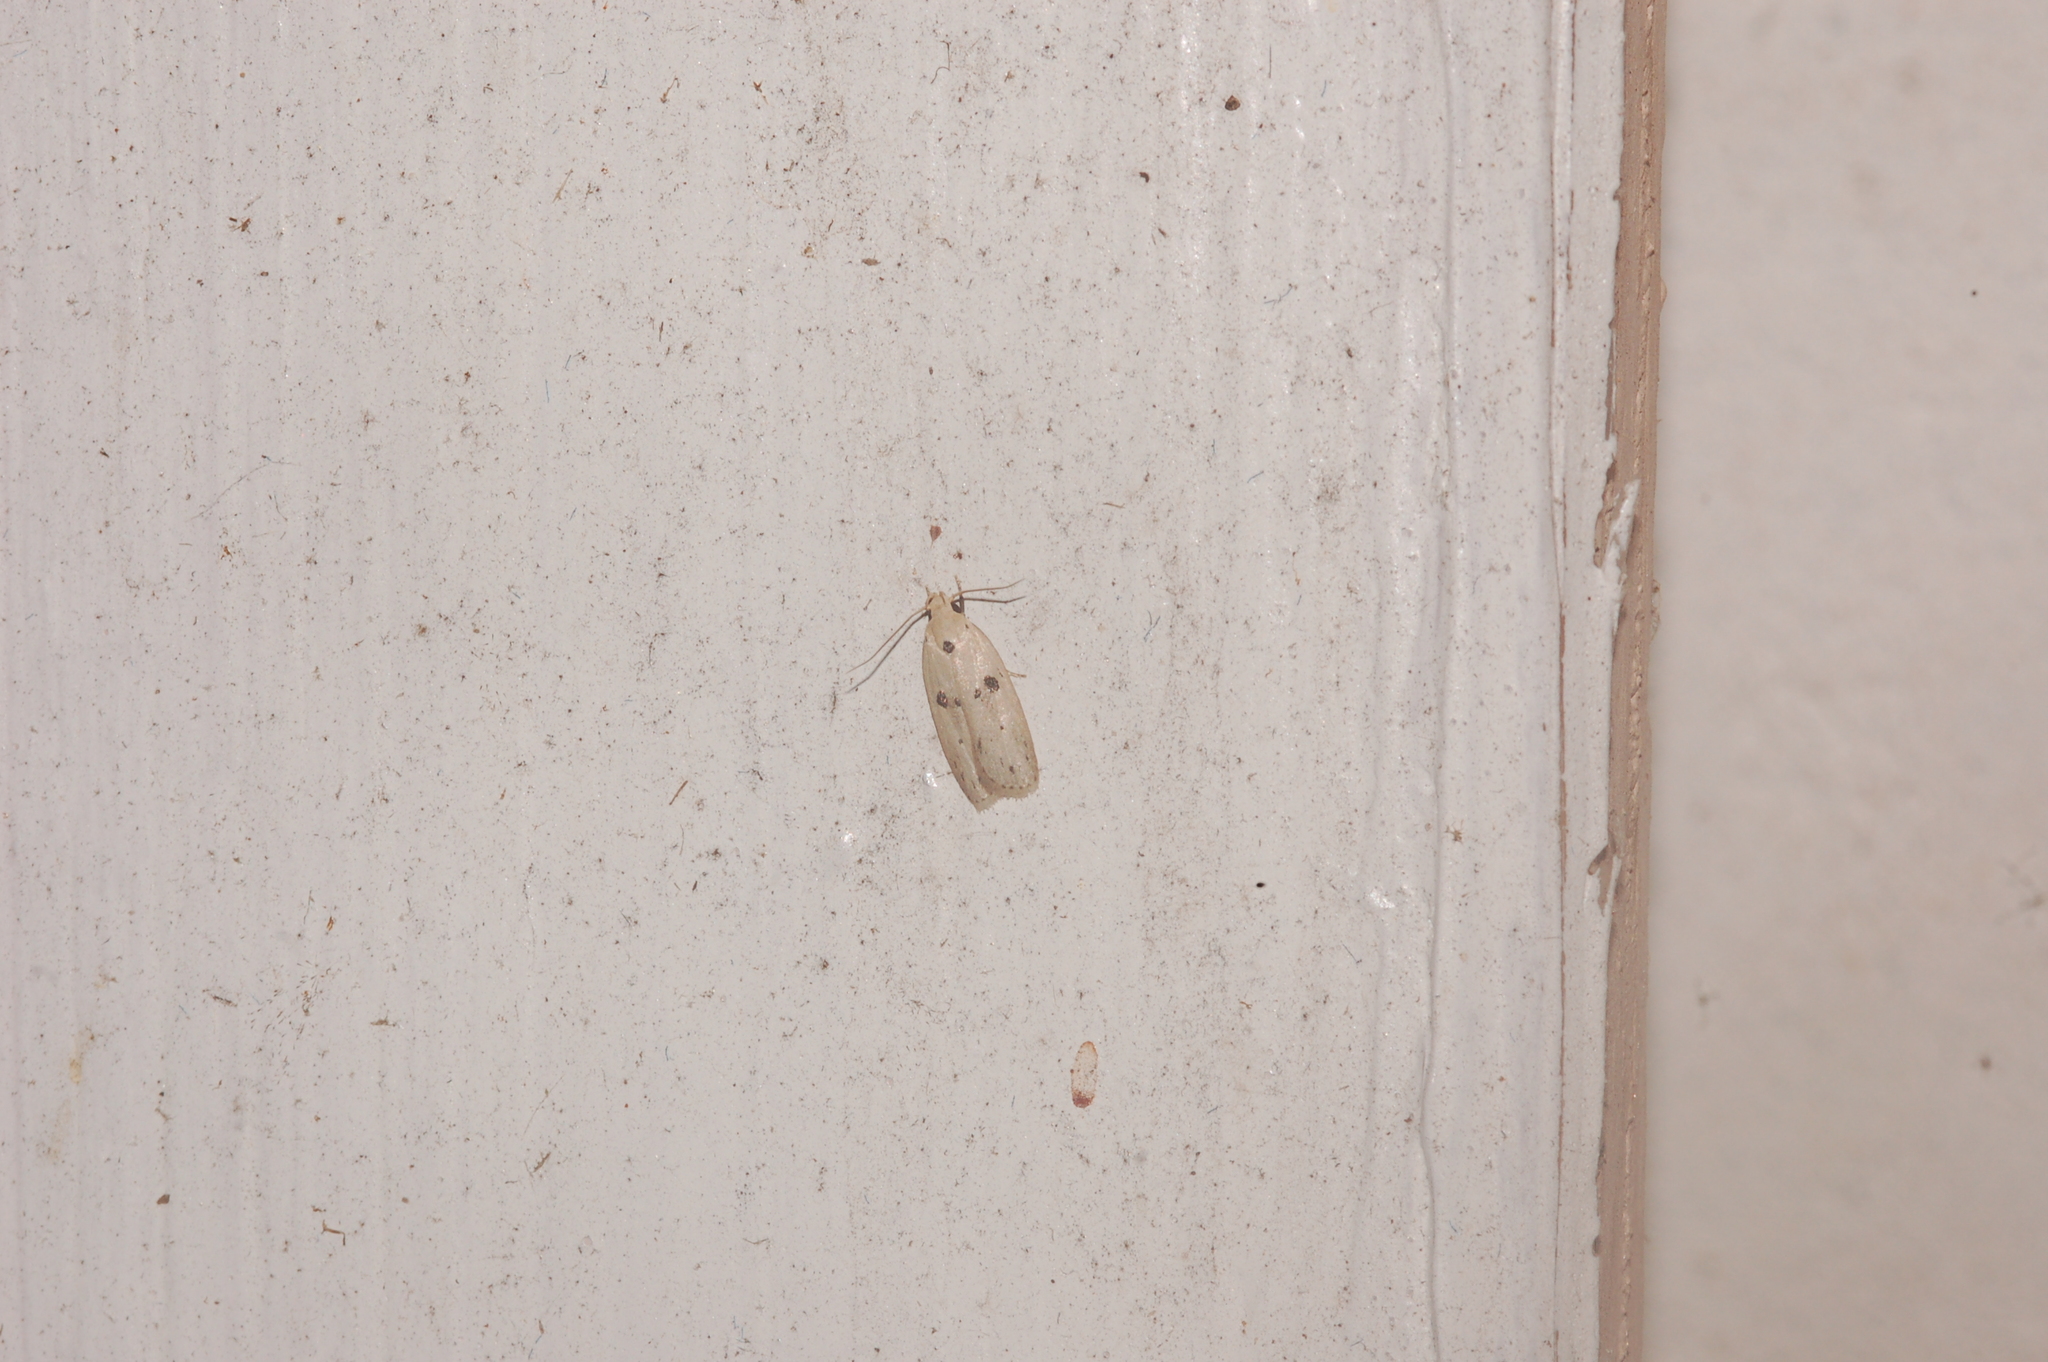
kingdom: Animalia
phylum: Arthropoda
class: Insecta
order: Lepidoptera
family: Peleopodidae
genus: Scythropiodes
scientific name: Scythropiodes issikii
